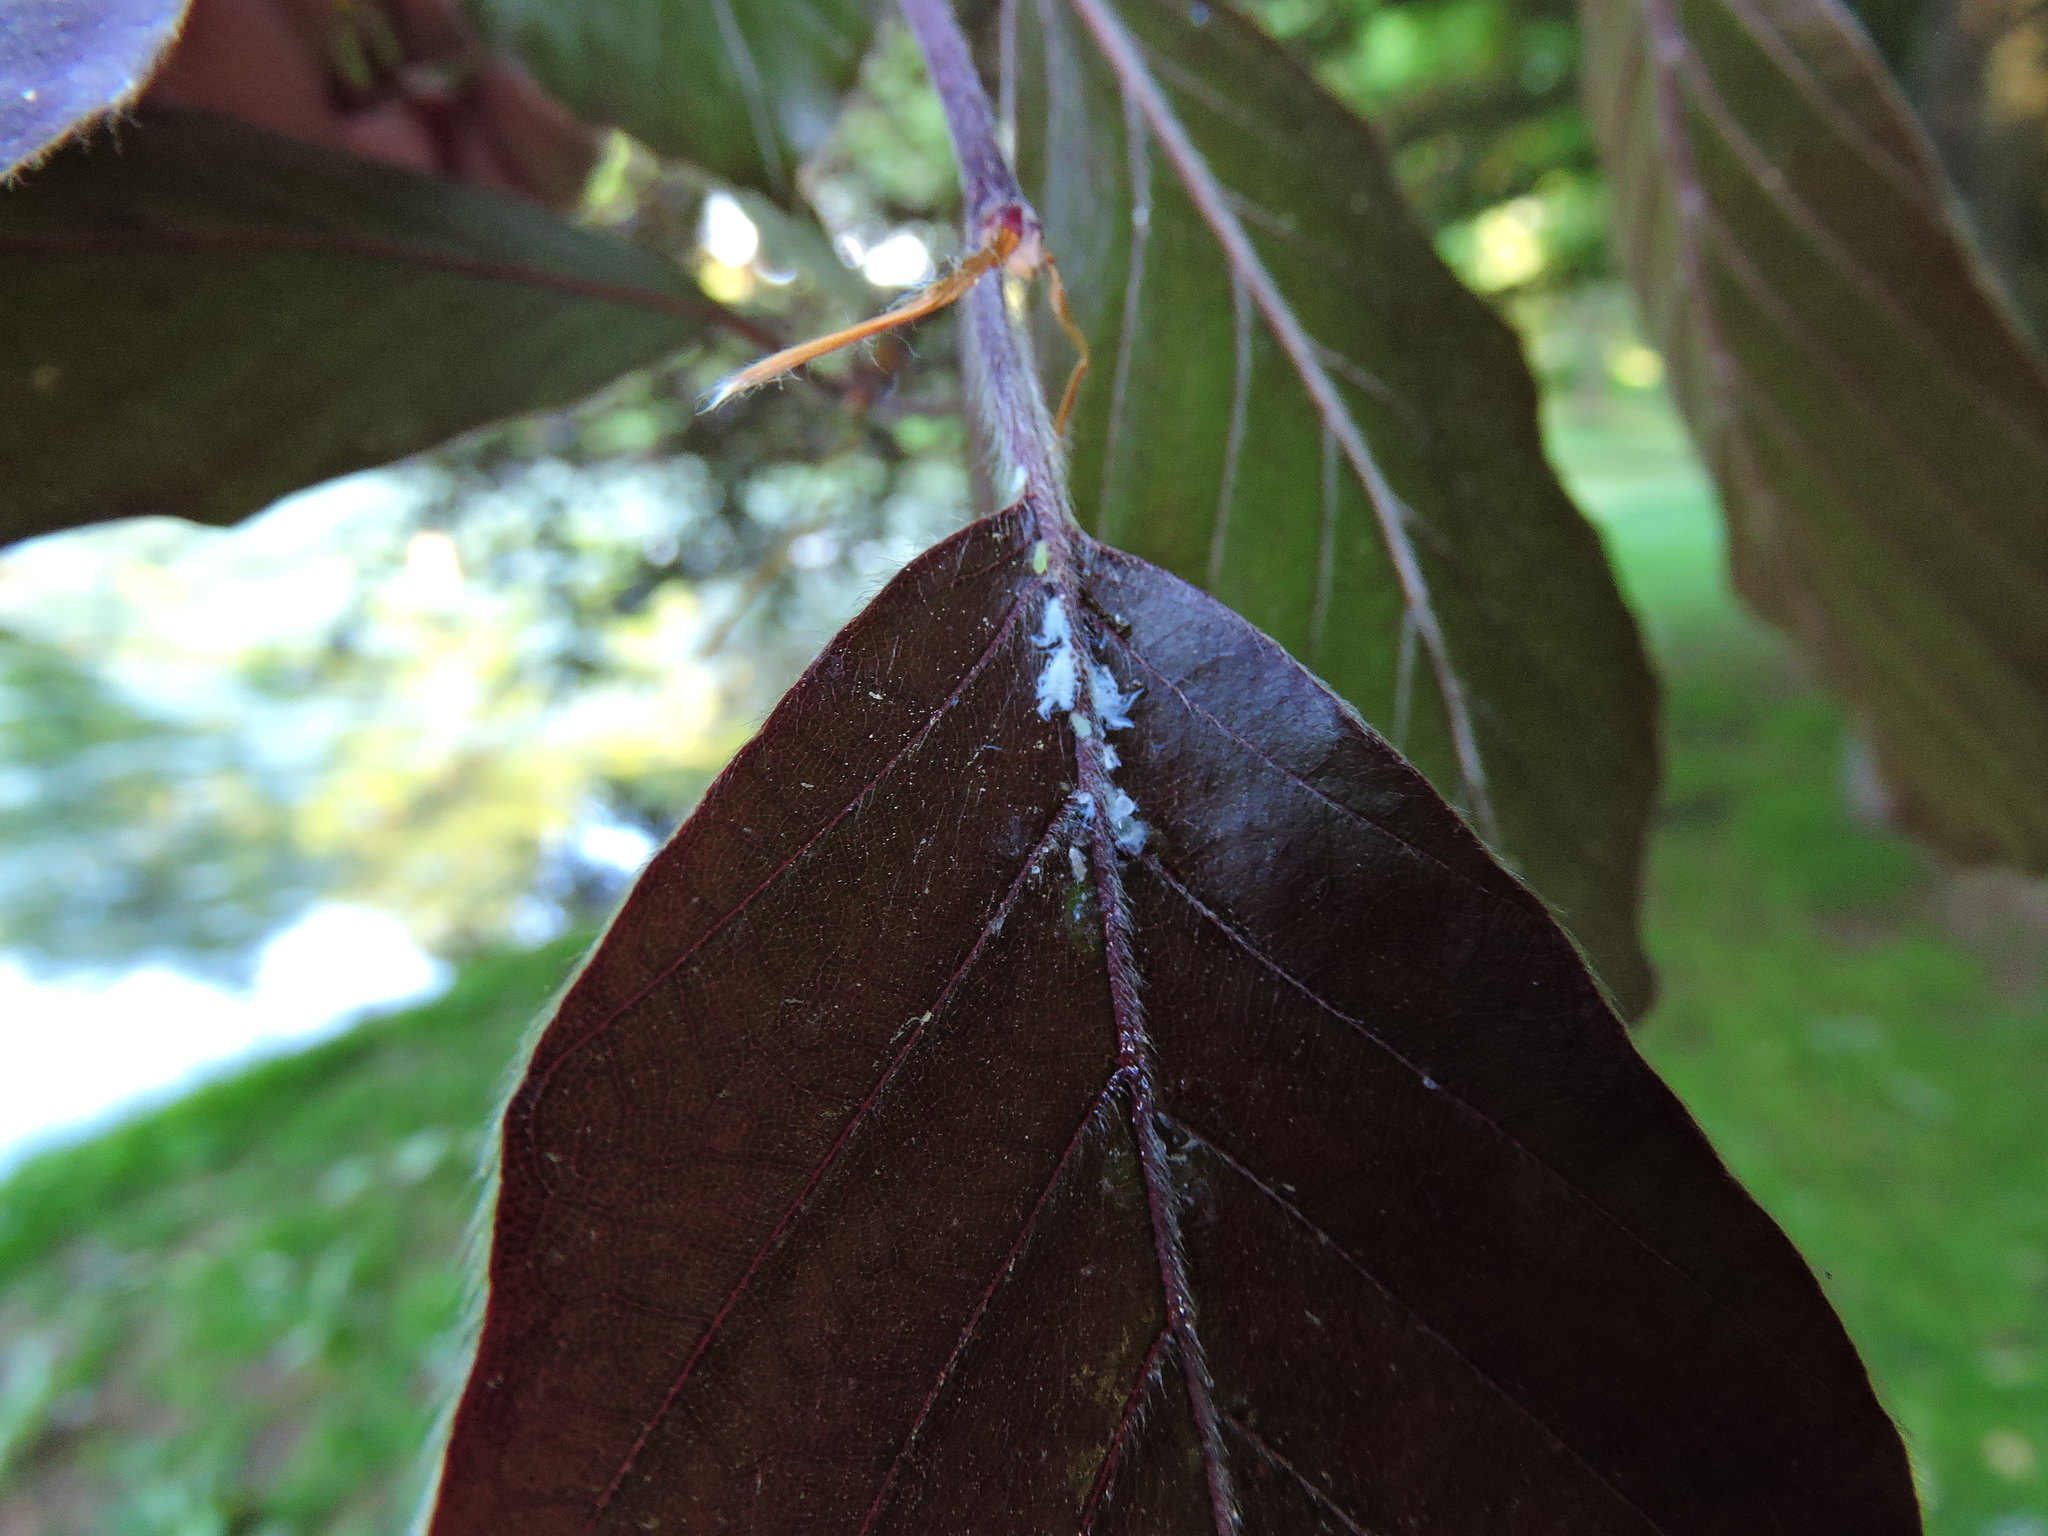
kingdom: Animalia
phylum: Arthropoda
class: Insecta
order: Hemiptera
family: Aphididae
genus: Phyllaphis
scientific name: Phyllaphis fagi
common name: Beech aphid
